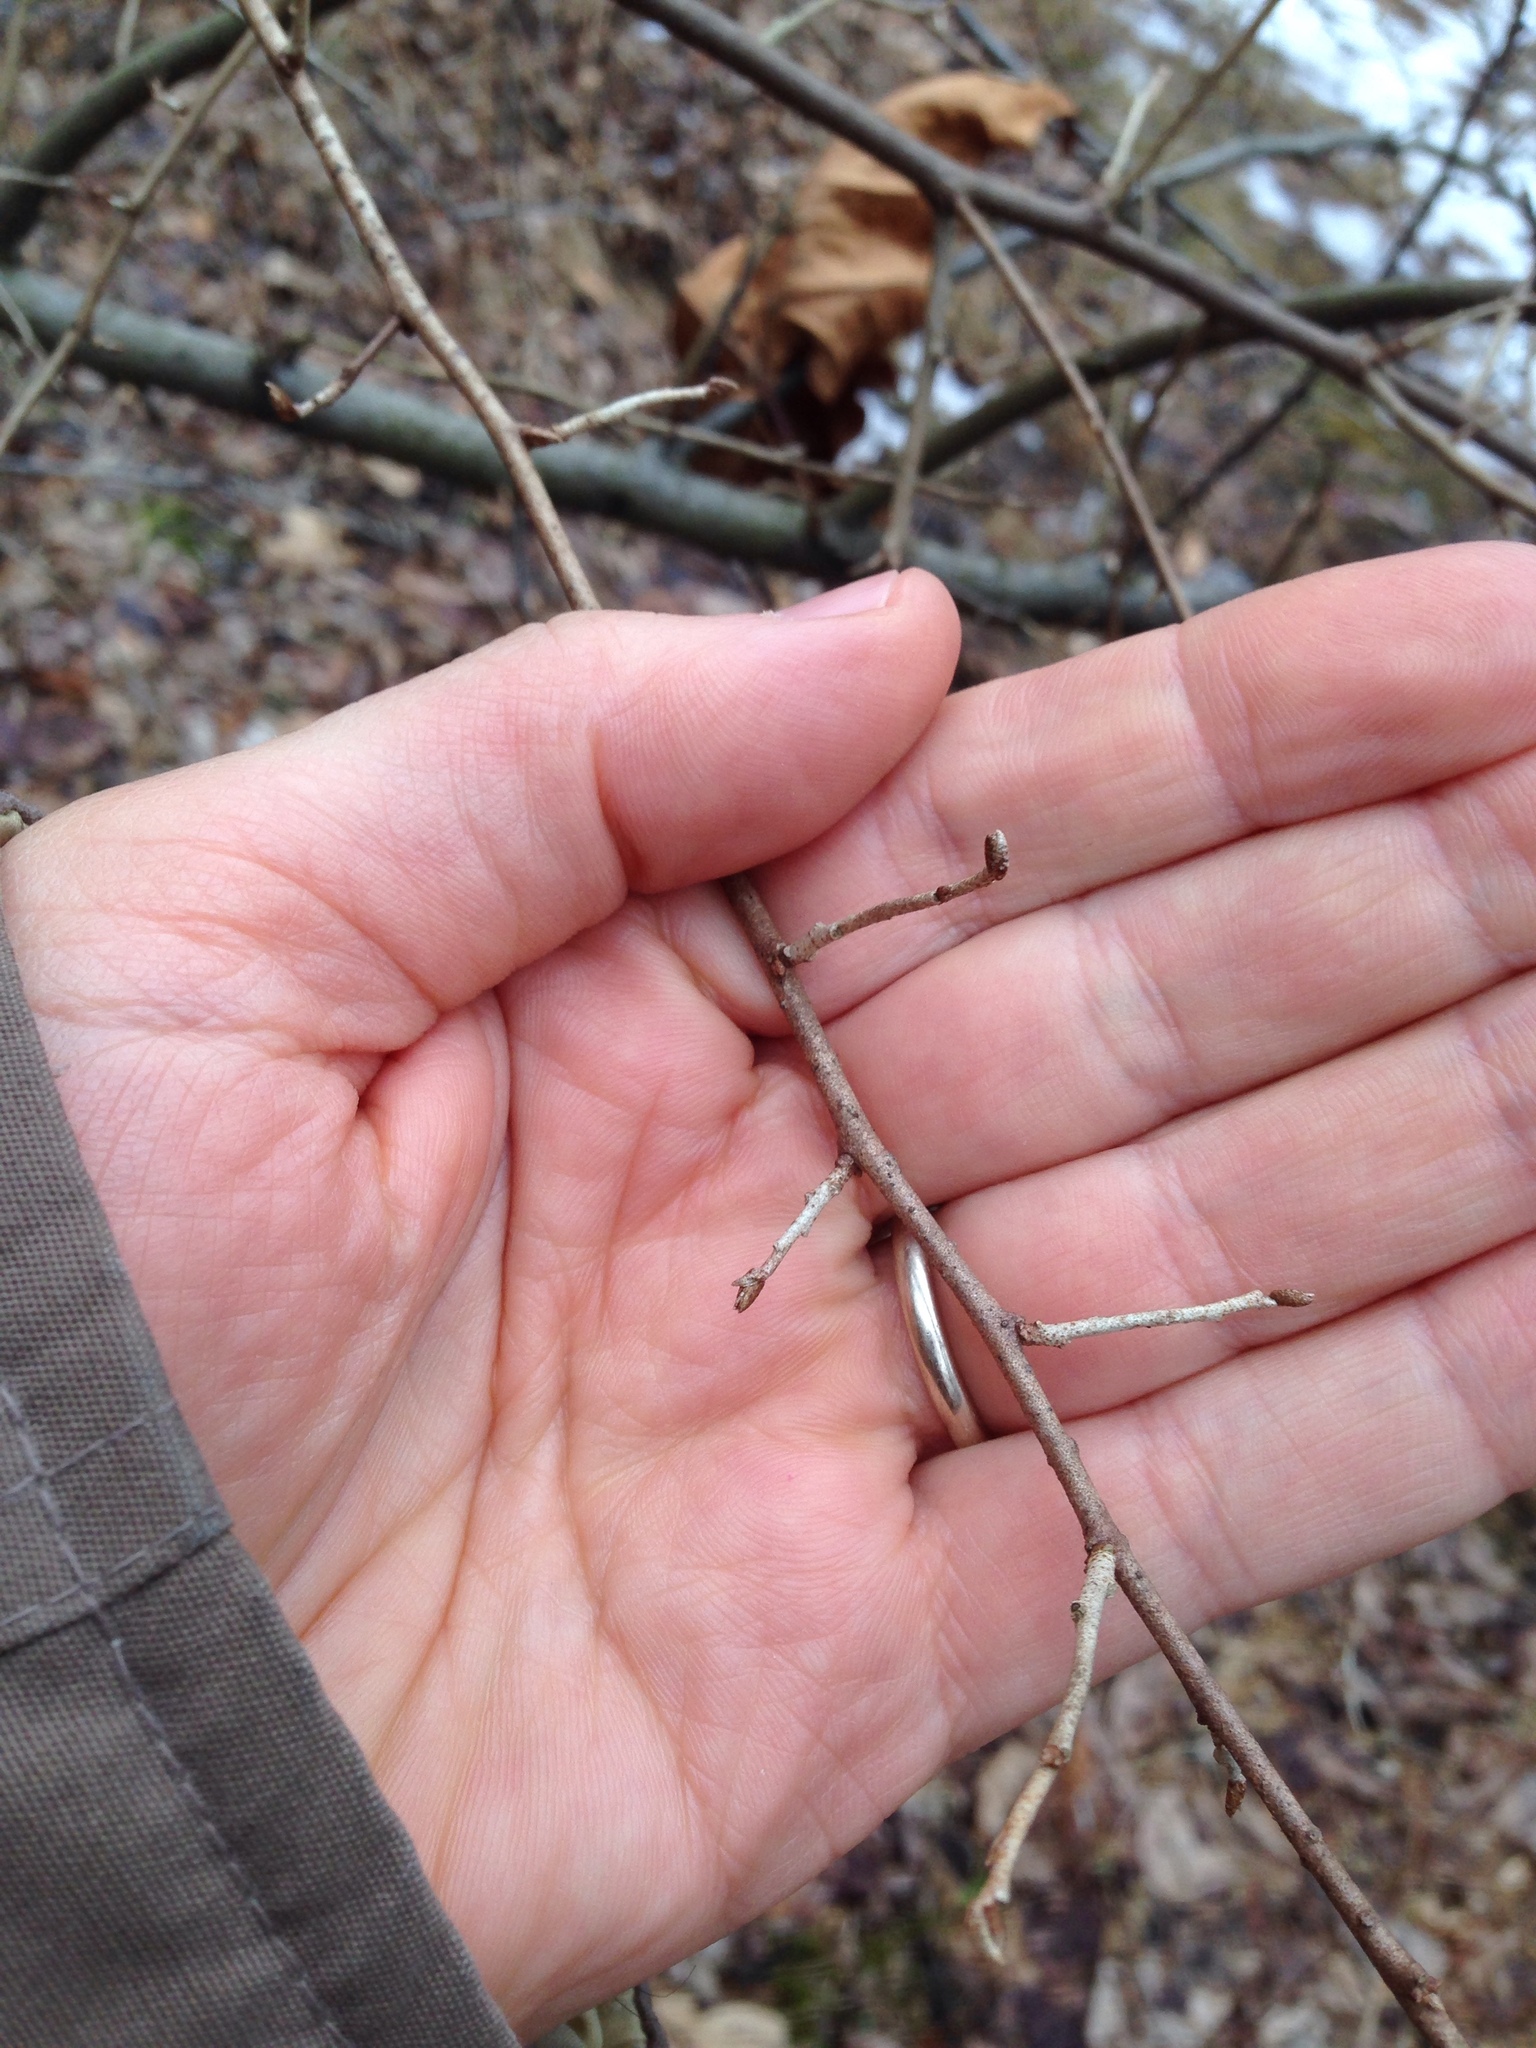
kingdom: Plantae
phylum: Tracheophyta
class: Magnoliopsida
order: Rosales
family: Elaeagnaceae
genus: Elaeagnus
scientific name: Elaeagnus umbellata
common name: Autumn olive
